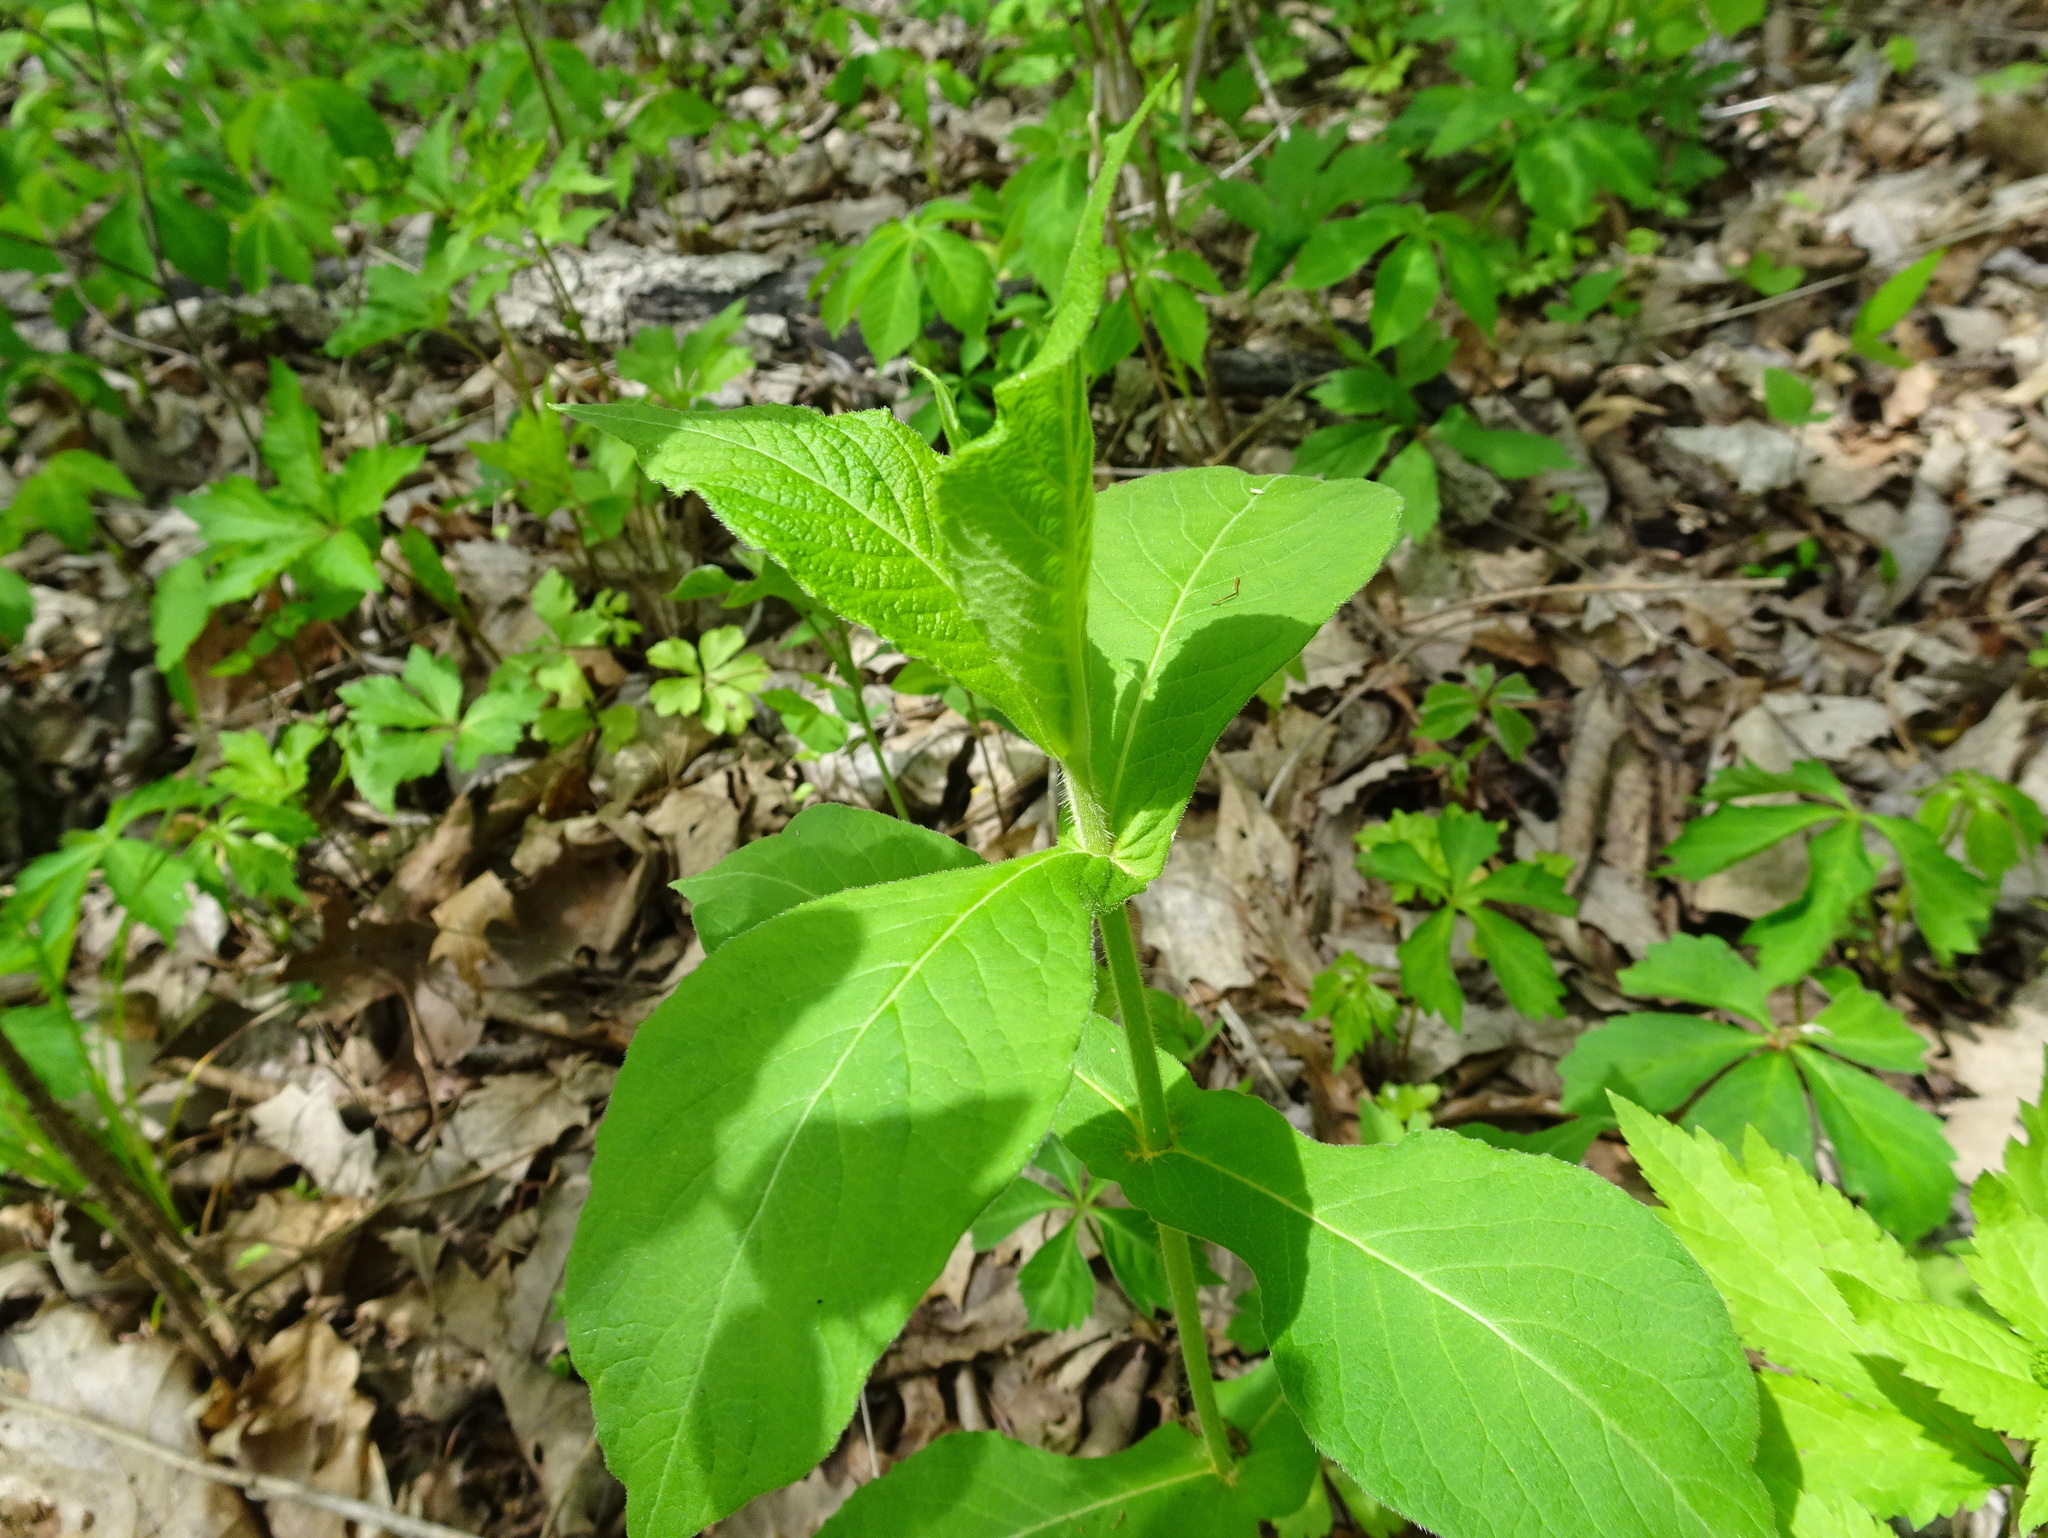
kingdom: Plantae
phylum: Tracheophyta
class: Magnoliopsida
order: Dipsacales
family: Caprifoliaceae
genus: Triosteum
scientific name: Triosteum perfoliatum
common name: Common horse-gentian
